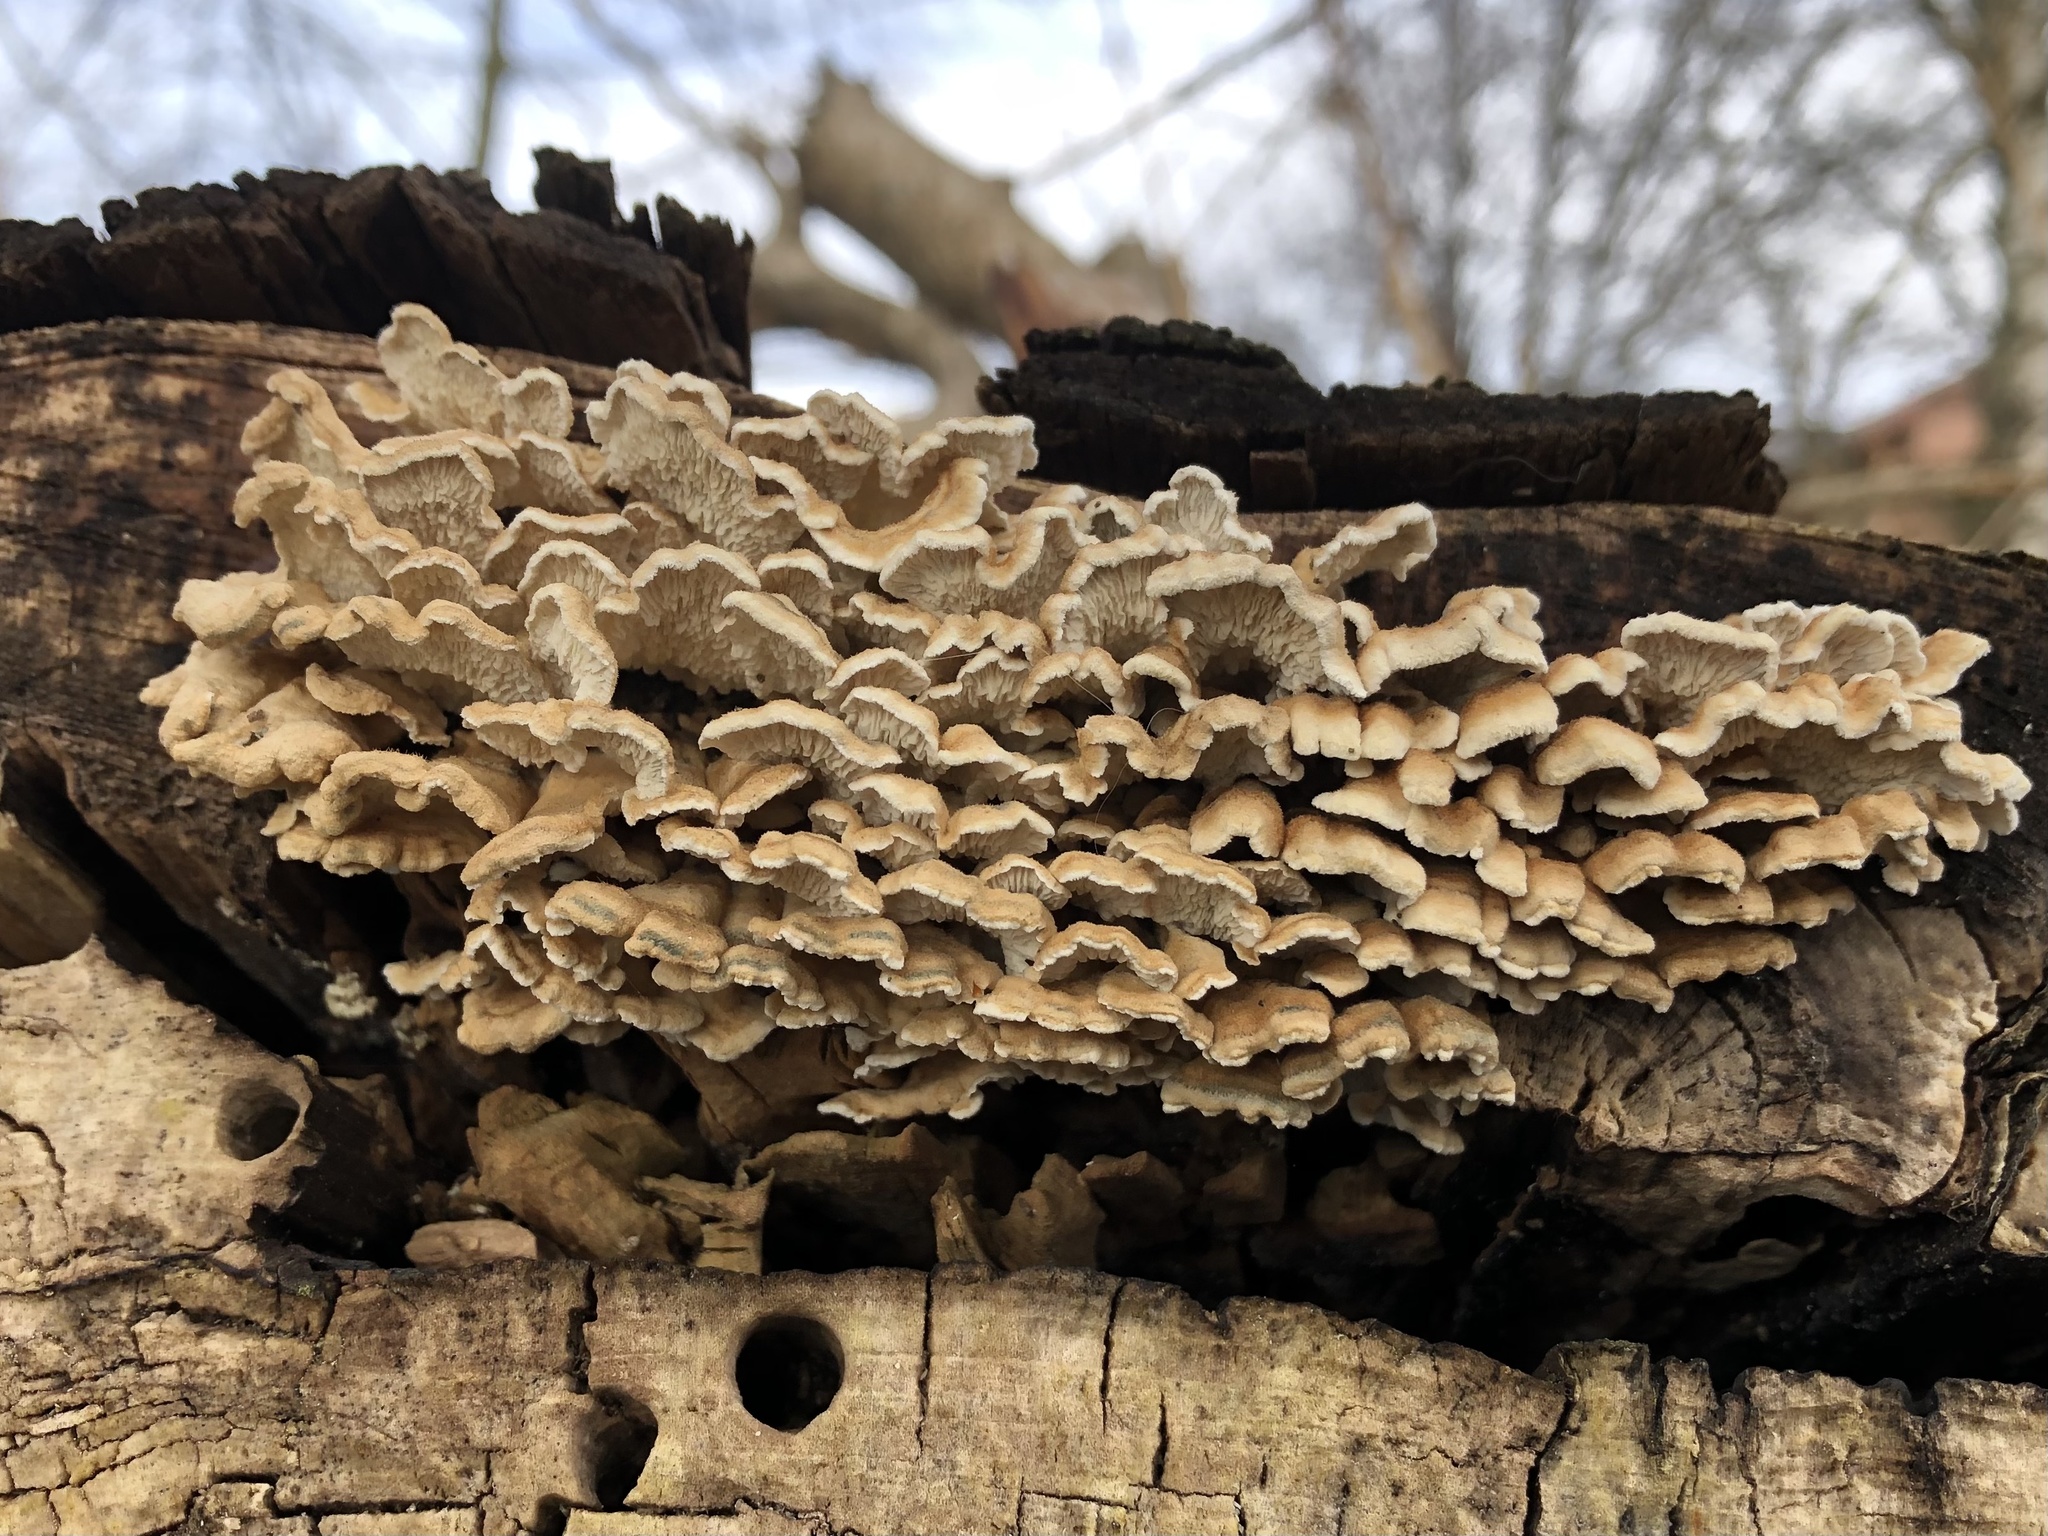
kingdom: Fungi
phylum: Basidiomycota
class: Agaricomycetes
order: Amylocorticiales
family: Amylocorticiaceae
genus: Plicaturopsis
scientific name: Plicaturopsis crispa
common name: Crimped gill
